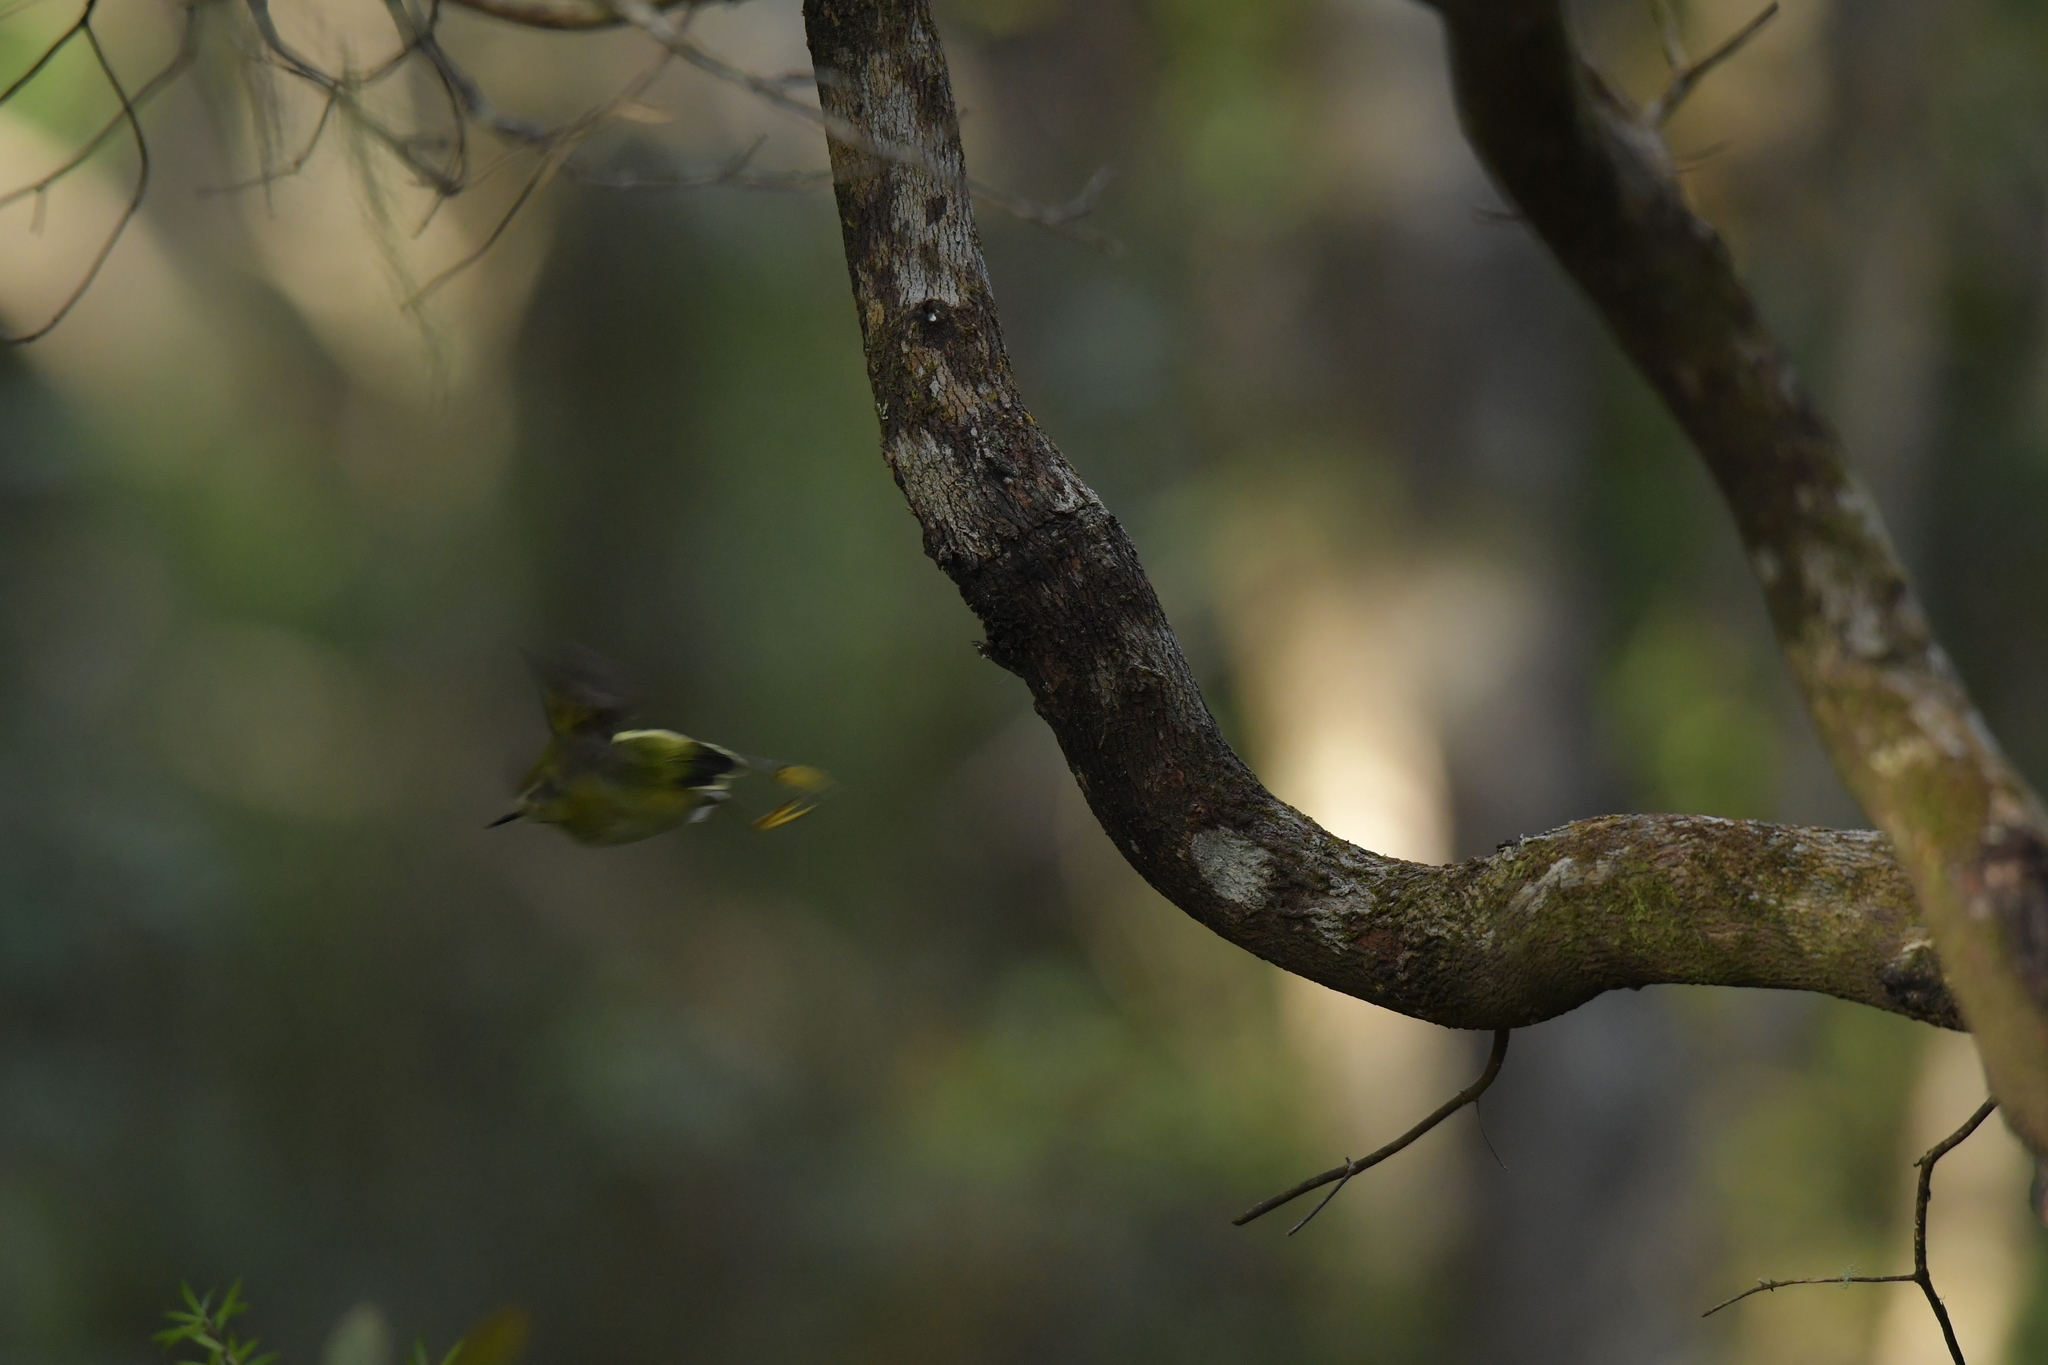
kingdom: Animalia
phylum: Chordata
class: Aves
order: Passeriformes
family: Acanthisittidae
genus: Acanthisitta
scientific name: Acanthisitta chloris
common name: Rifleman
